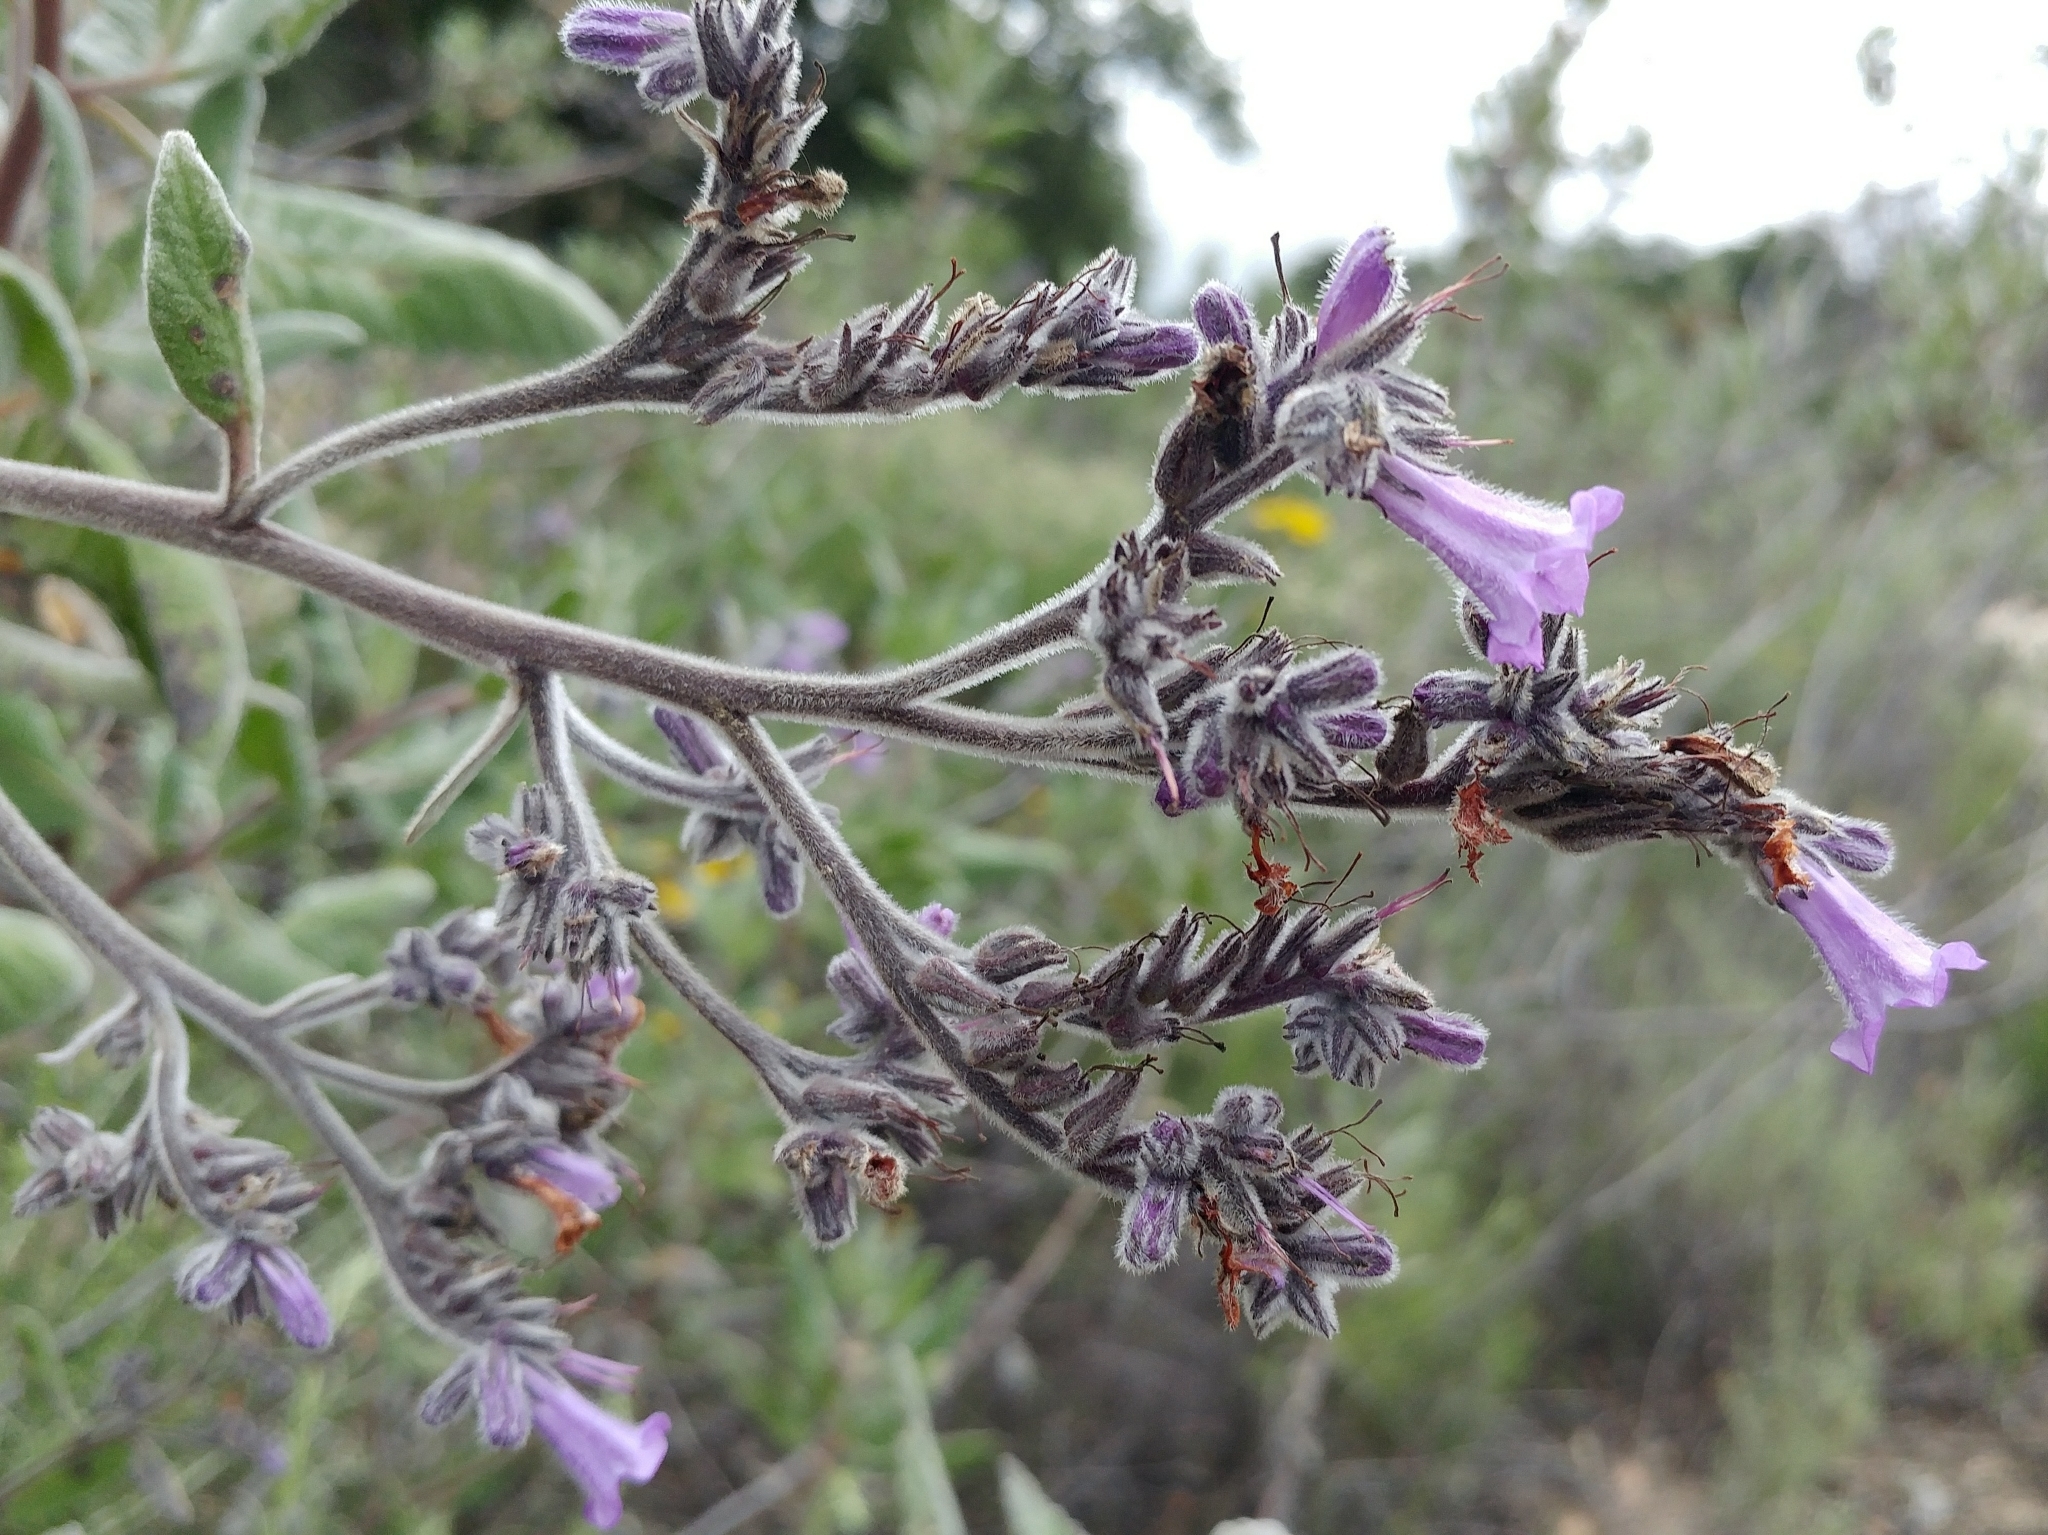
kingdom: Plantae
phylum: Tracheophyta
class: Magnoliopsida
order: Boraginales
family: Namaceae
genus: Eriodictyon
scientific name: Eriodictyon crassifolium
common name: Thick-leaf yerba-santa
